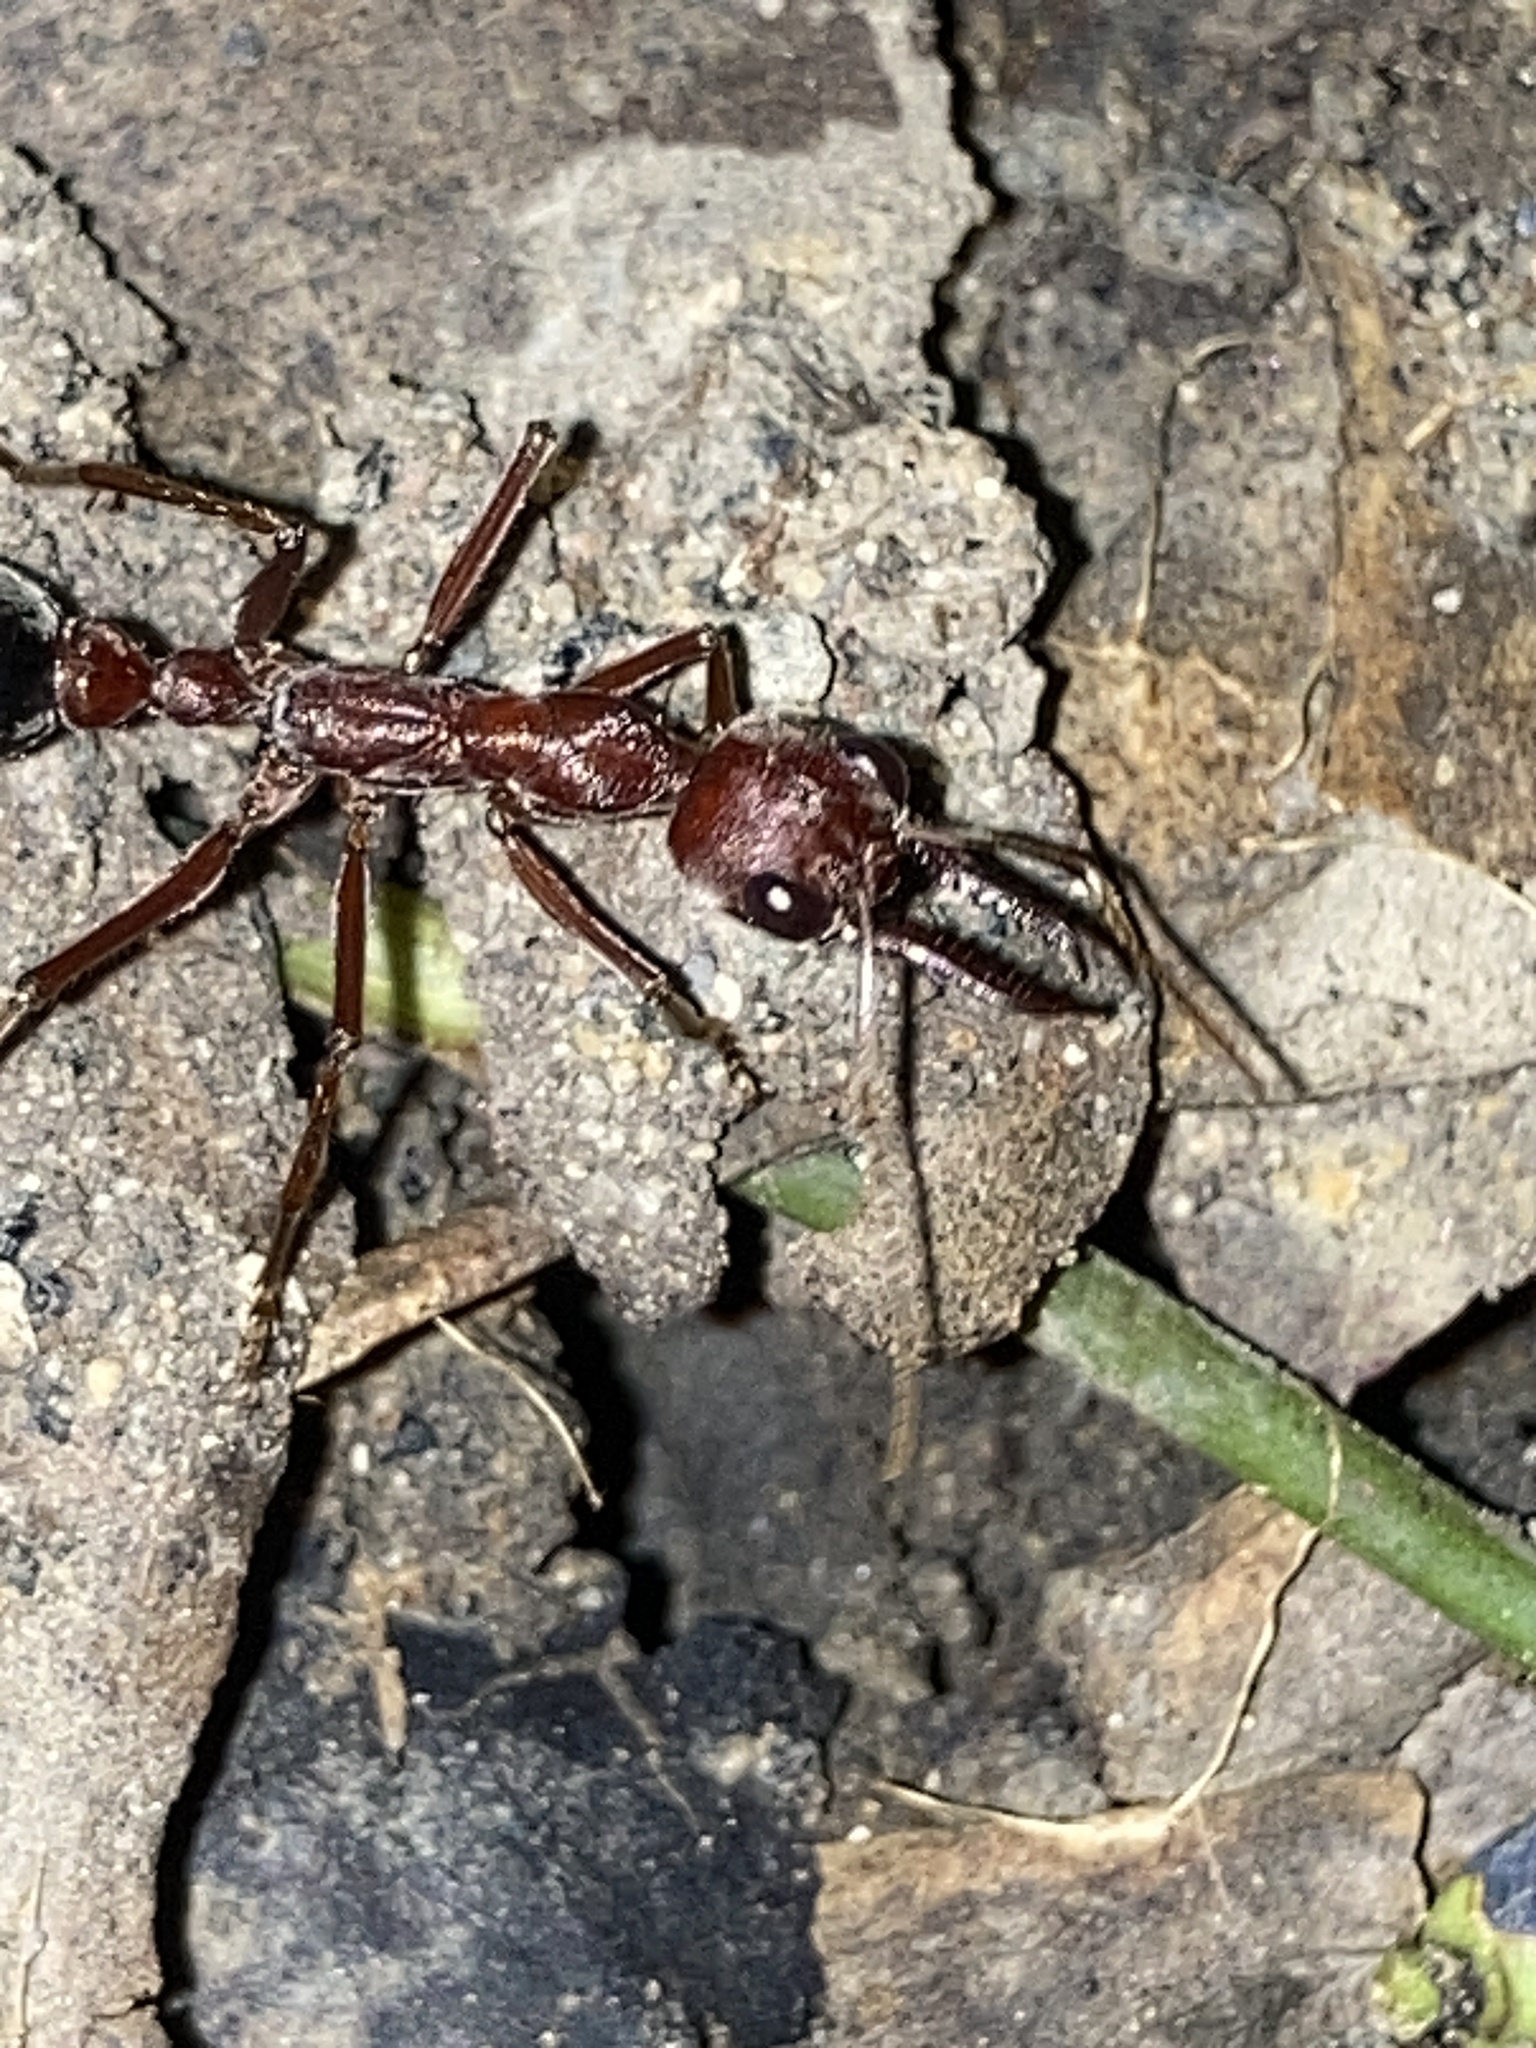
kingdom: Animalia
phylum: Arthropoda
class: Insecta
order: Hymenoptera
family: Formicidae
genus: Myrmecia
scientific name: Myrmecia brevinoda
